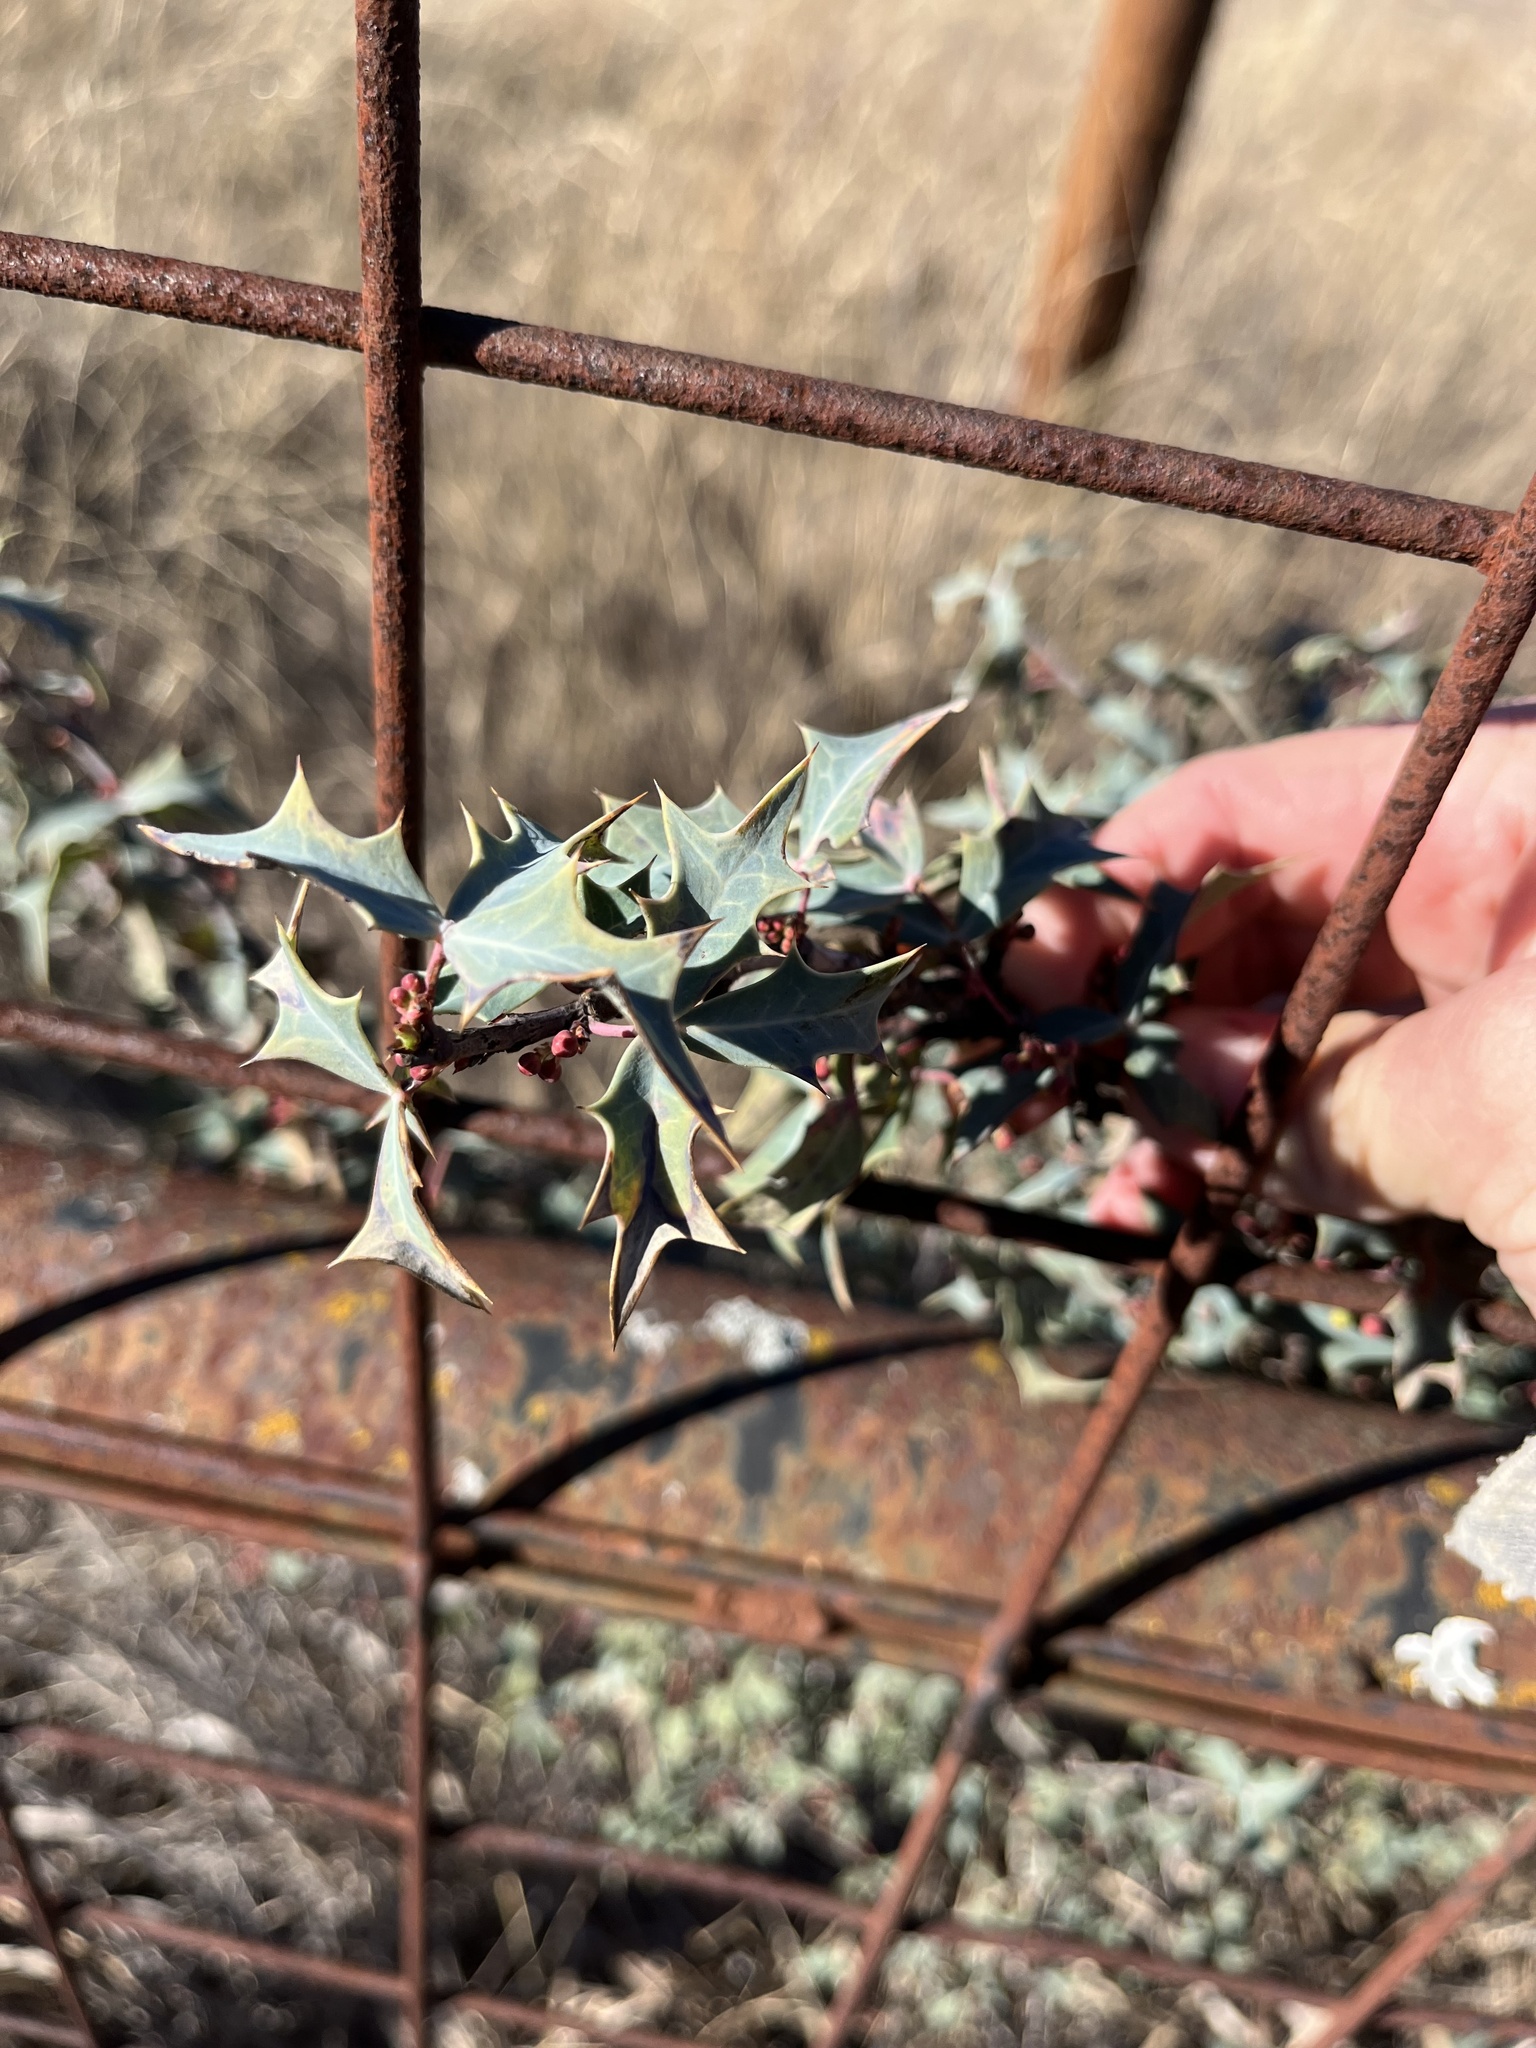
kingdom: Plantae
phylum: Tracheophyta
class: Magnoliopsida
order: Ranunculales
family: Berberidaceae
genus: Alloberberis
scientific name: Alloberberis trifoliolata
